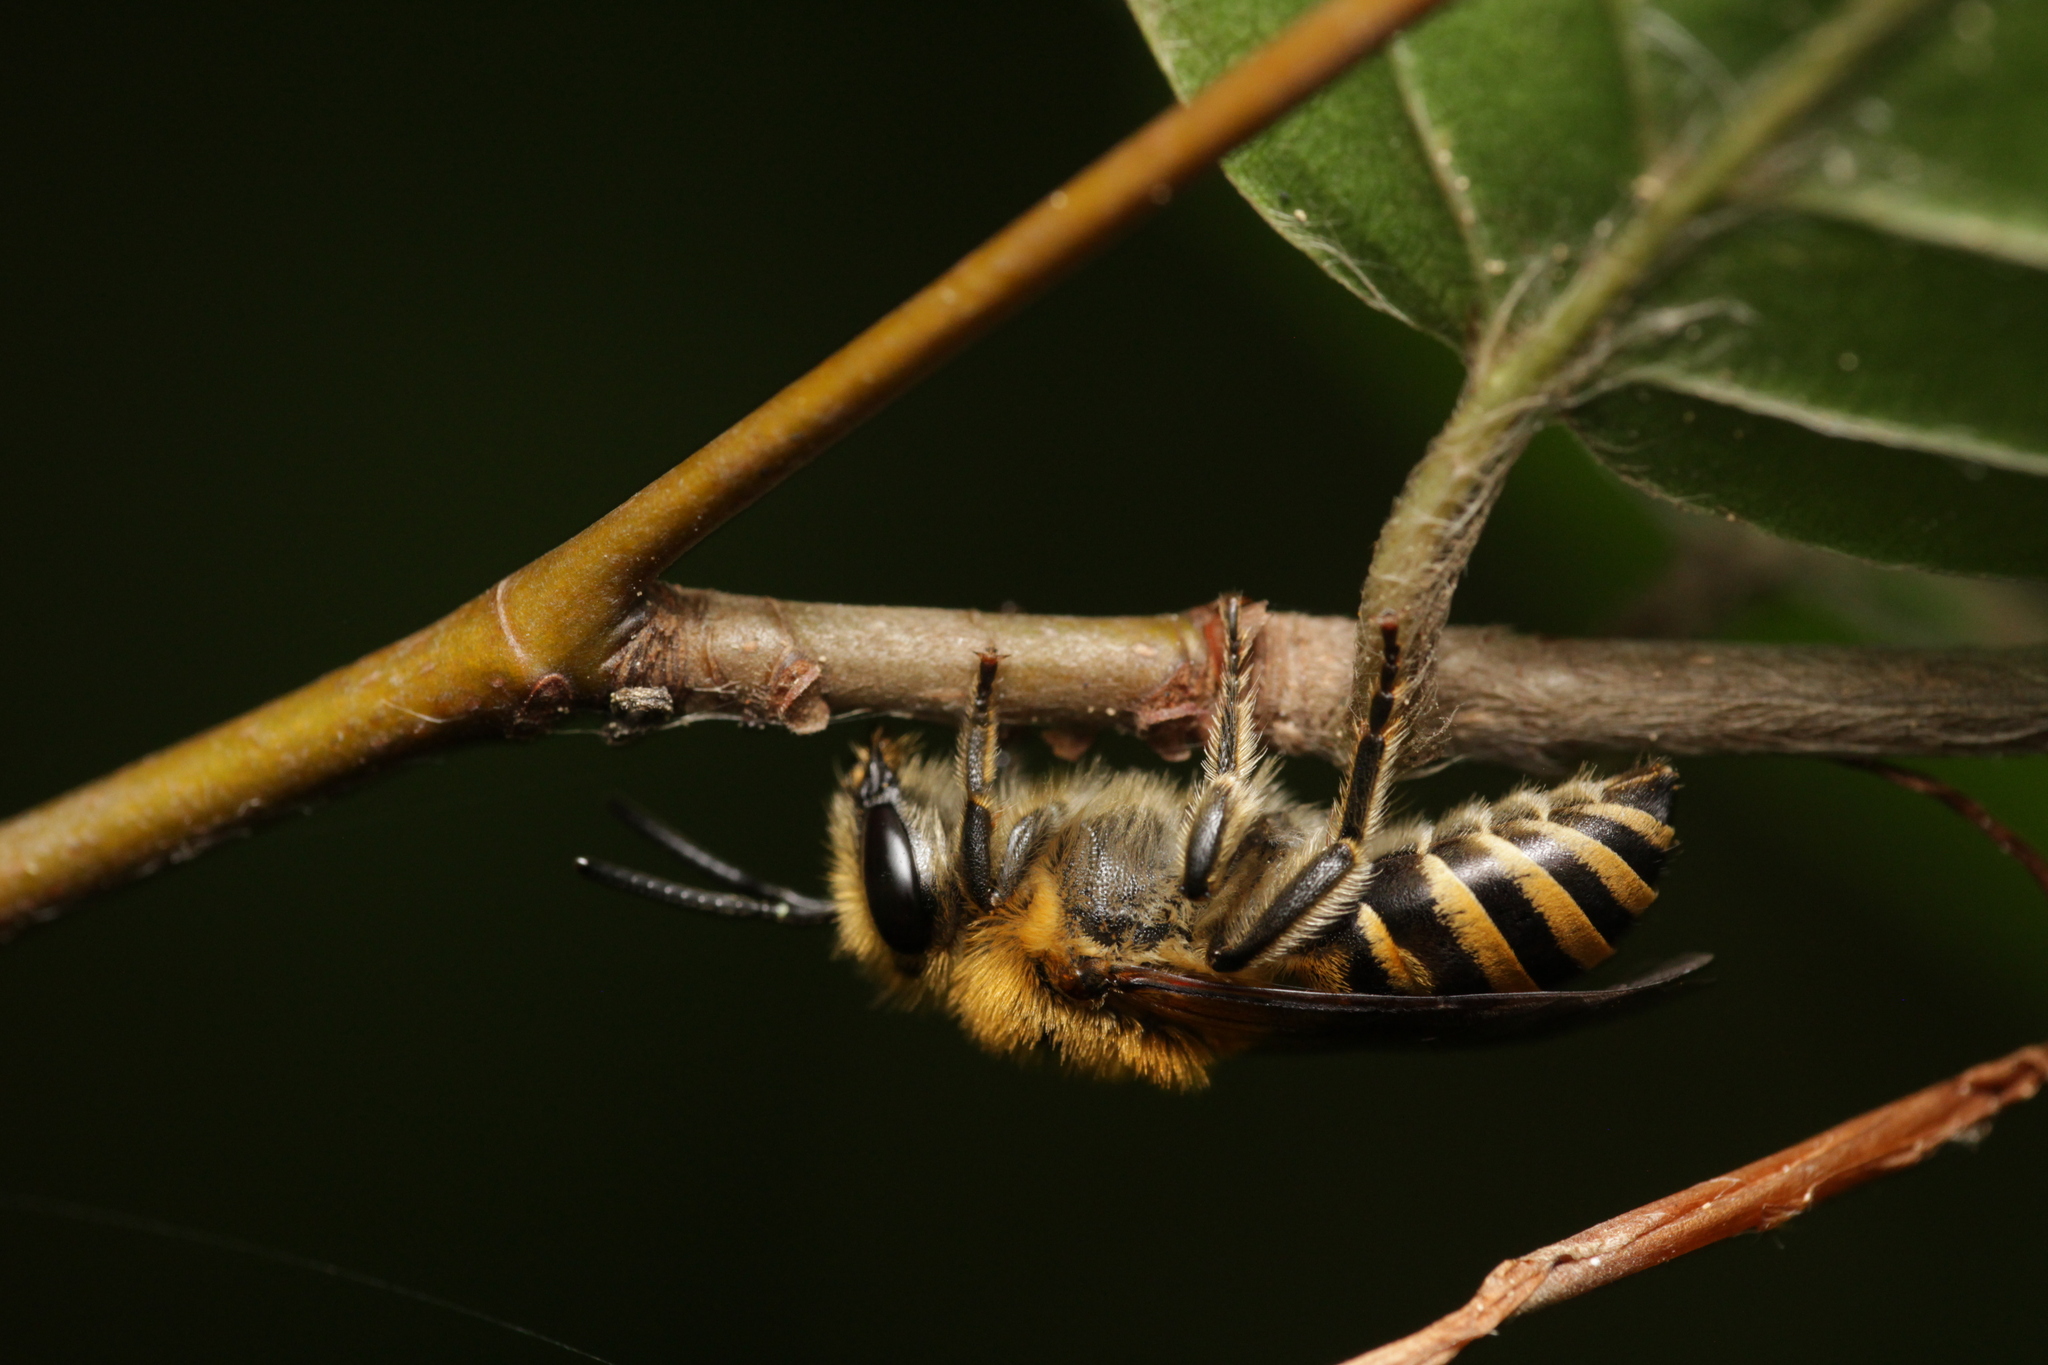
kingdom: Animalia
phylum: Arthropoda
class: Insecta
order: Hymenoptera
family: Colletidae
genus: Colletes
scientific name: Colletes hederae
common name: Ivy bee
